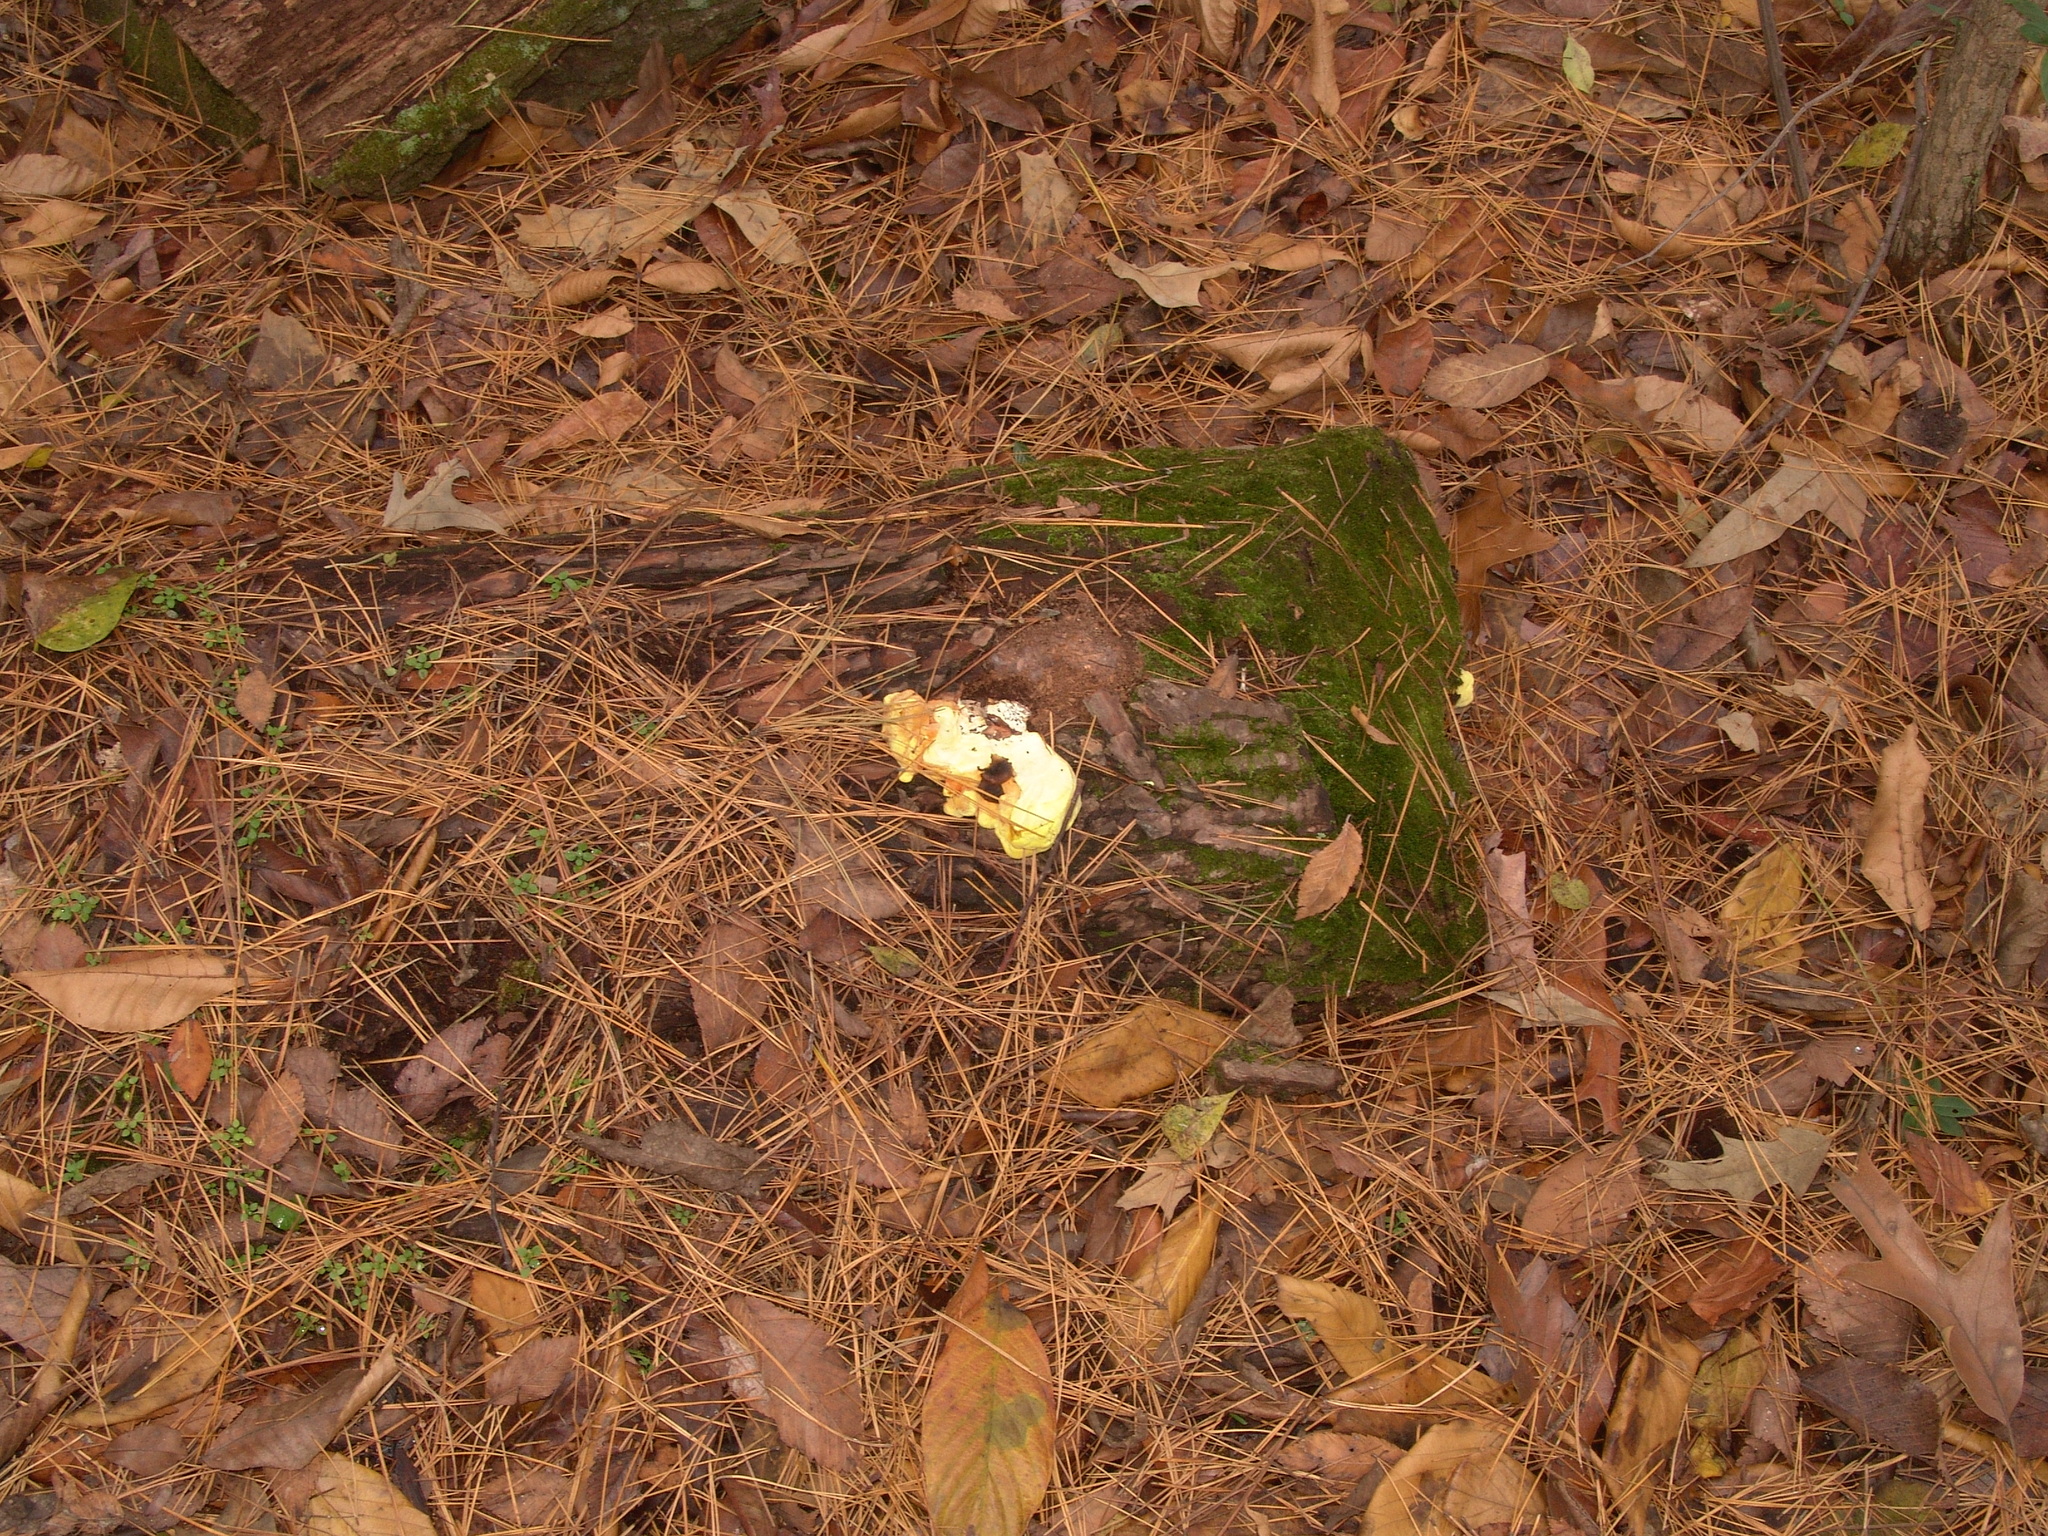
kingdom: Fungi
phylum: Basidiomycota
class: Agaricomycetes
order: Polyporales
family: Laetiporaceae
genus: Laetiporus
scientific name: Laetiporus sulphureus
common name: Chicken of the woods
